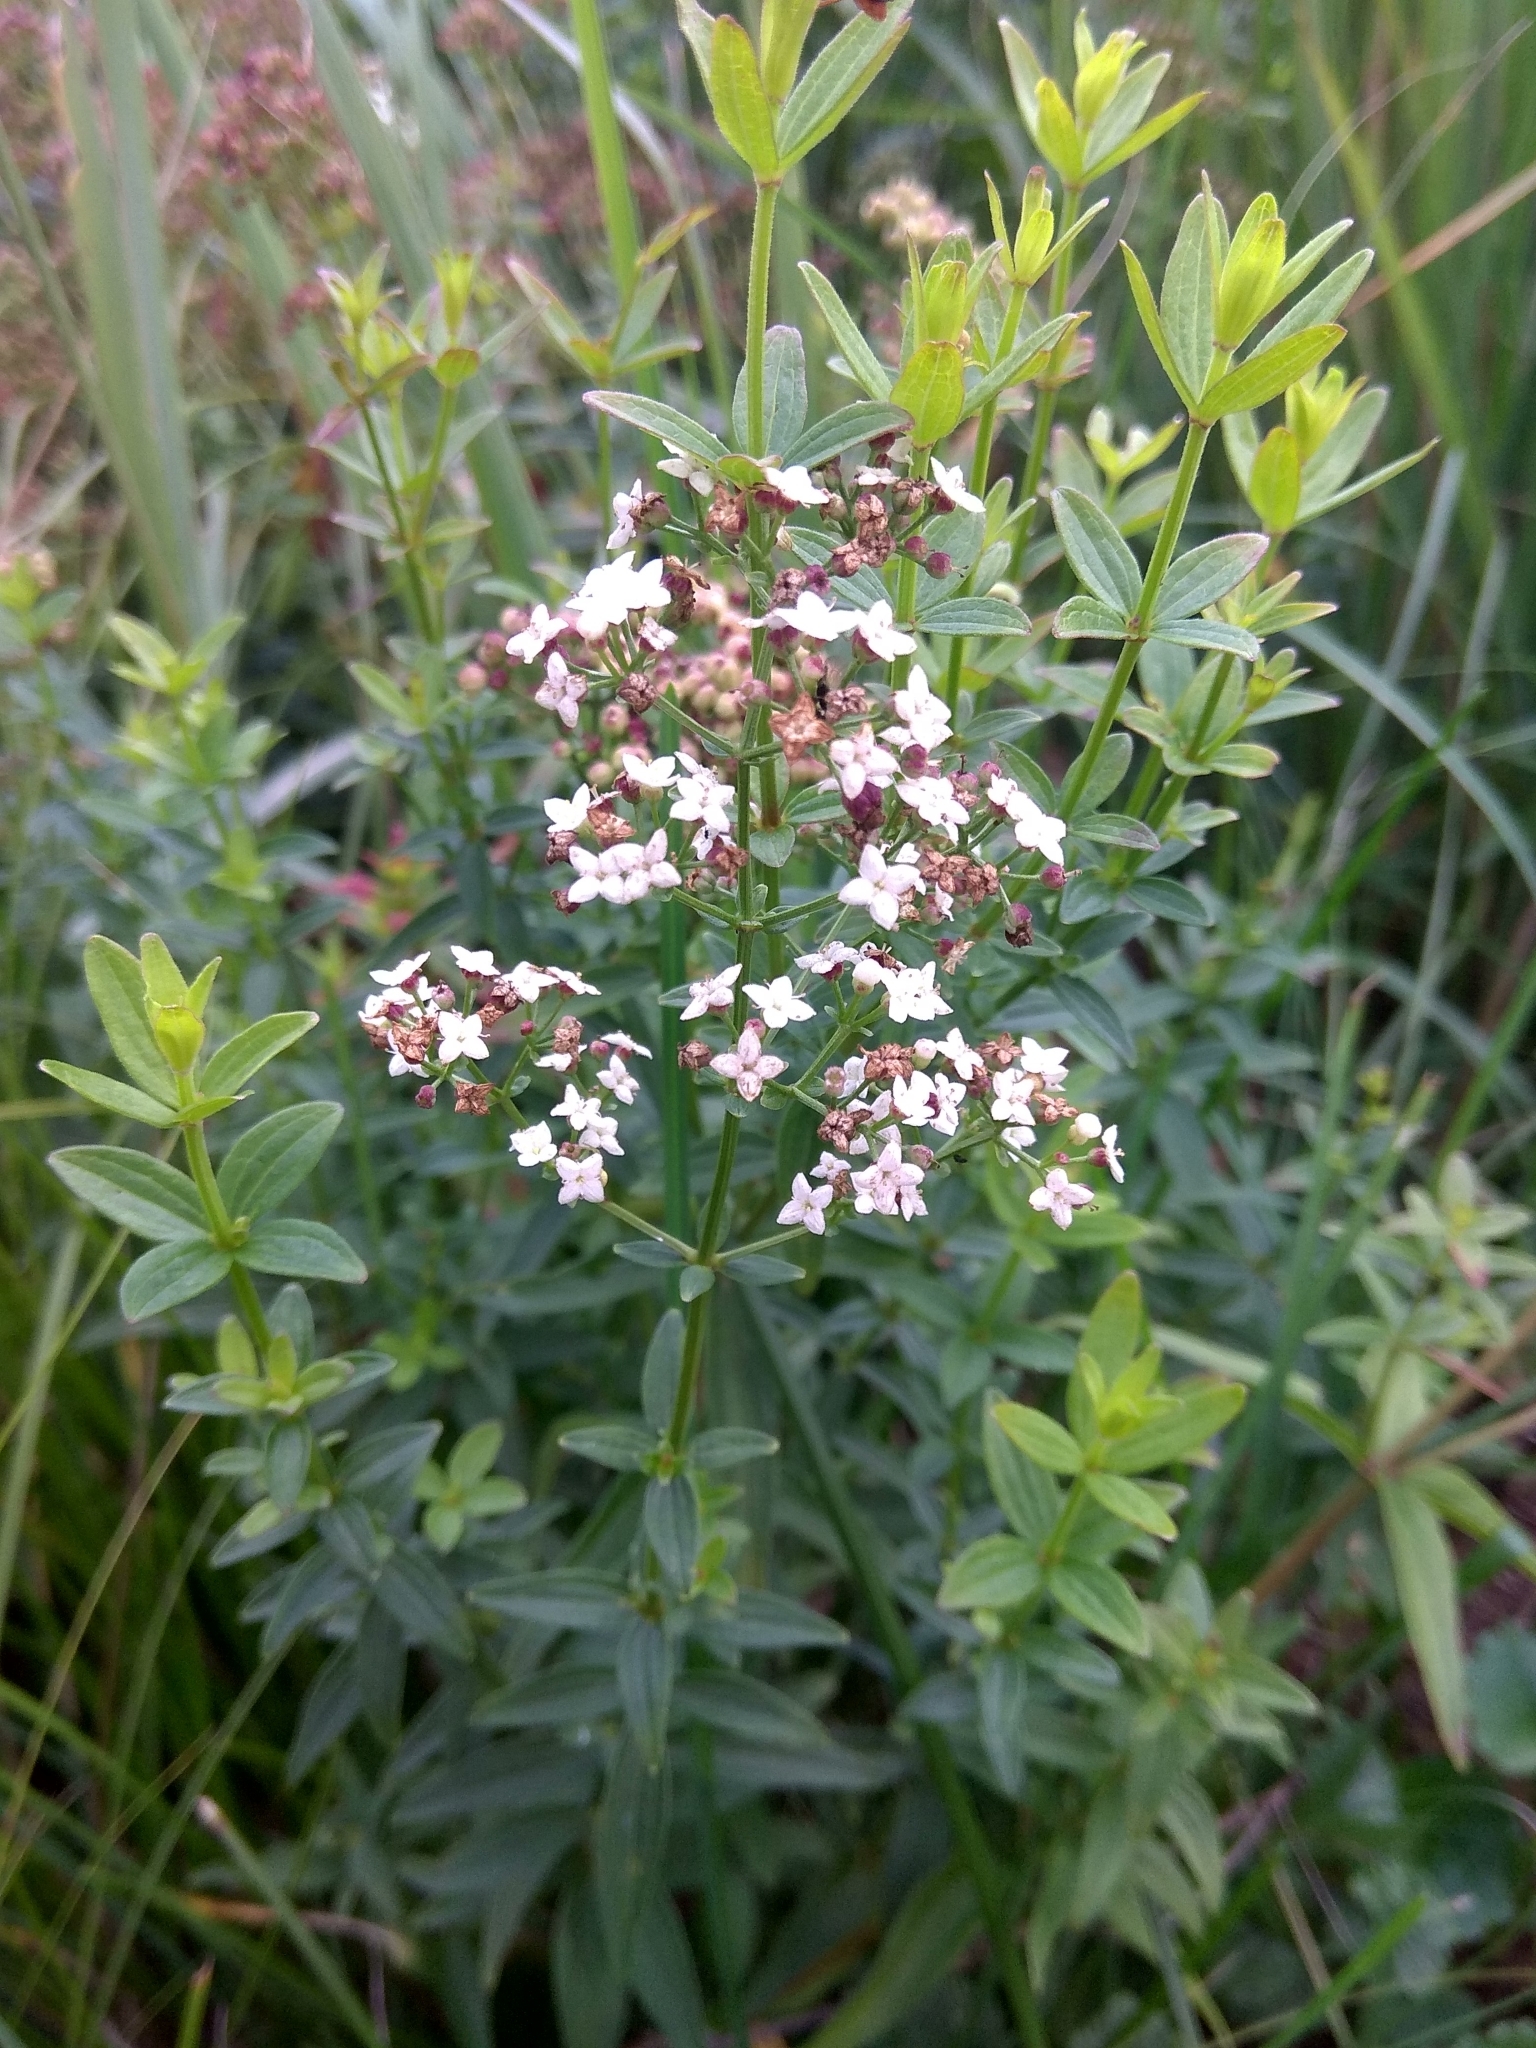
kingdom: Plantae
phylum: Tracheophyta
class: Magnoliopsida
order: Gentianales
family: Rubiaceae
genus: Galium
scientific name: Galium boreale
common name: Northern bedstraw
